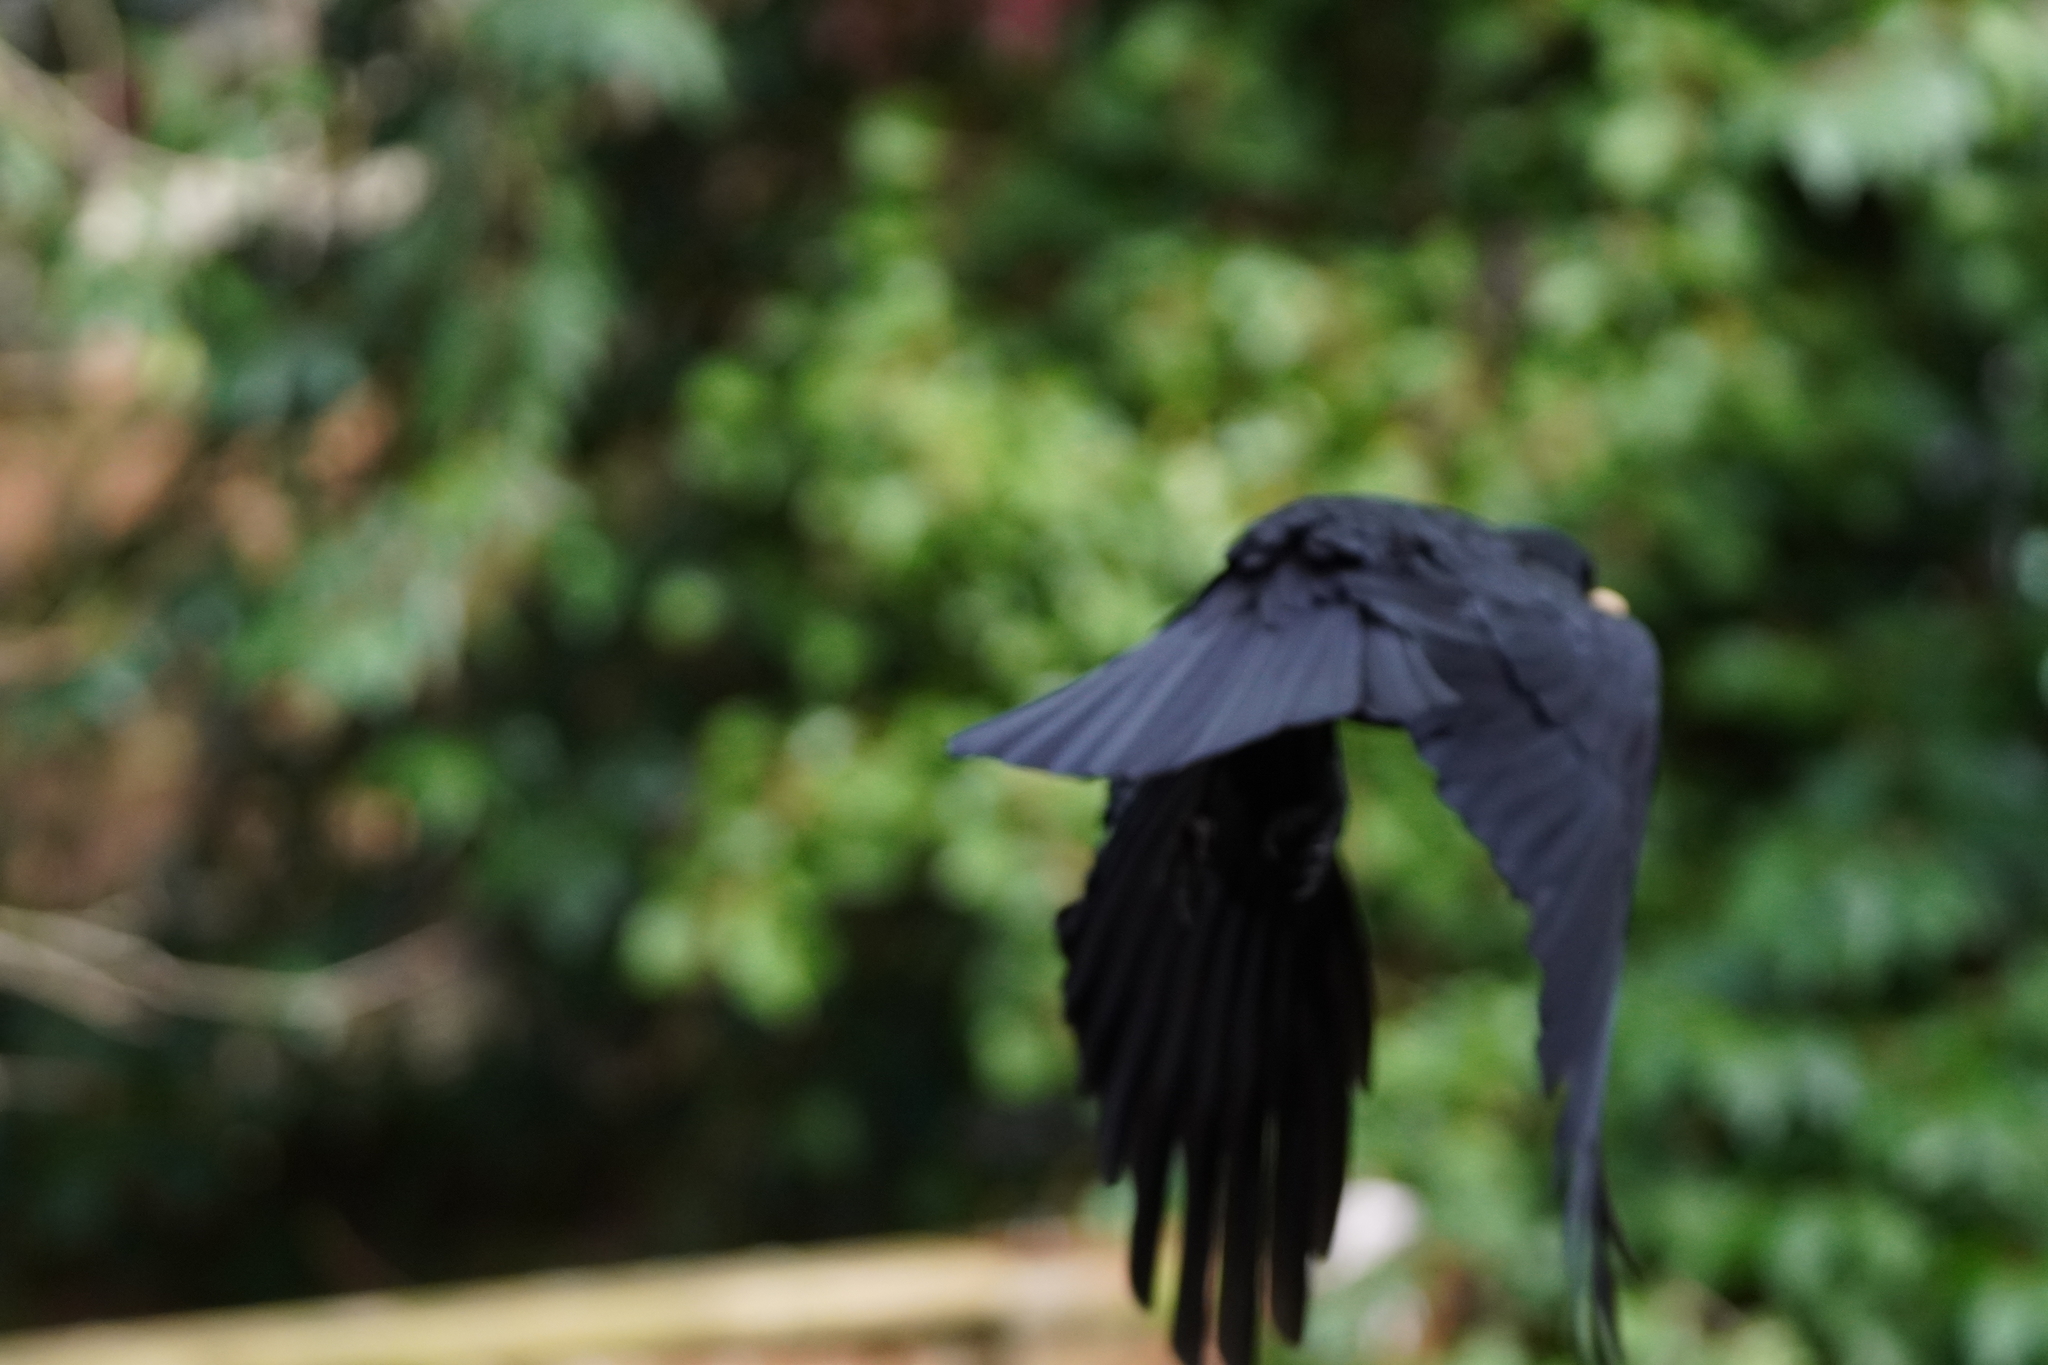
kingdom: Animalia
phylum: Chordata
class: Aves
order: Passeriformes
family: Corvidae
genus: Corvus
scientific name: Corvus brachyrhynchos
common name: American crow
